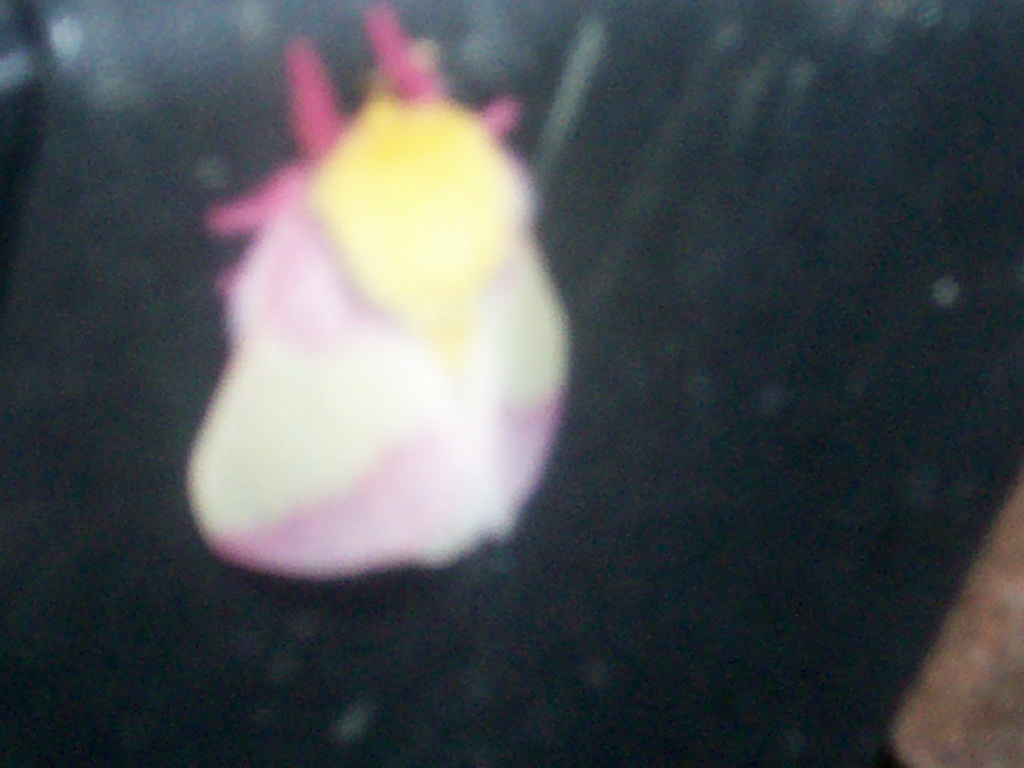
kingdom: Animalia
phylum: Arthropoda
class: Insecta
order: Lepidoptera
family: Saturniidae
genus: Dryocampa
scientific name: Dryocampa rubicunda
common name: Rosy maple moth
